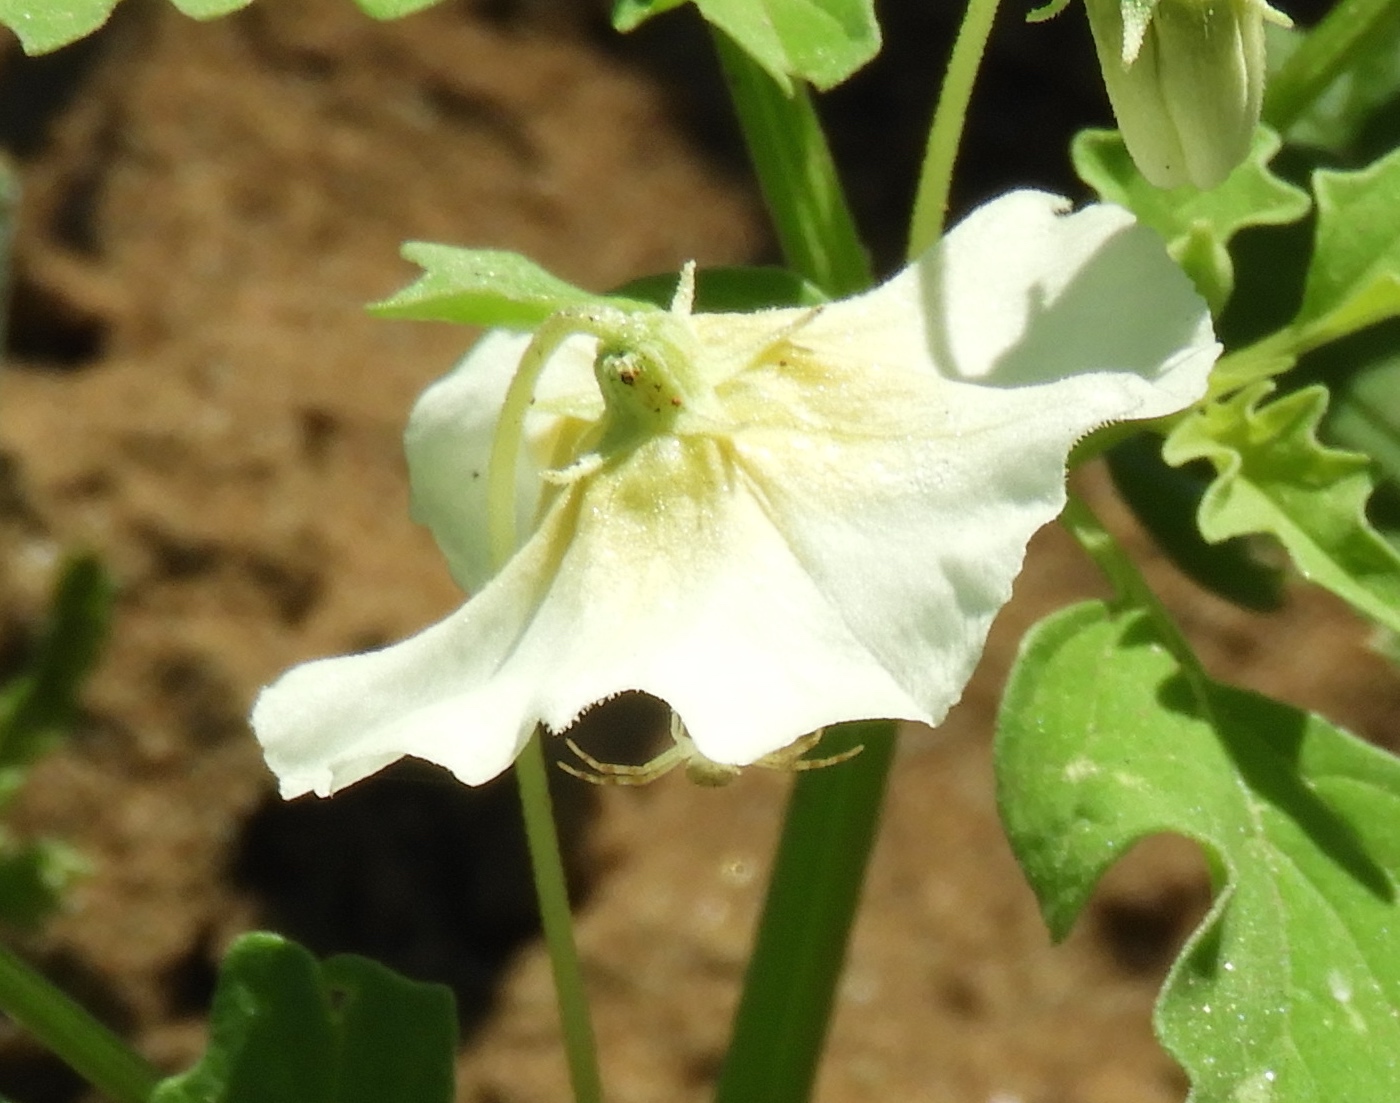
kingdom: Plantae
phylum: Tracheophyta
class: Magnoliopsida
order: Solanales
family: Solanaceae
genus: Physalis
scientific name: Physalis acutifolia
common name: Wright's ground-cherry
